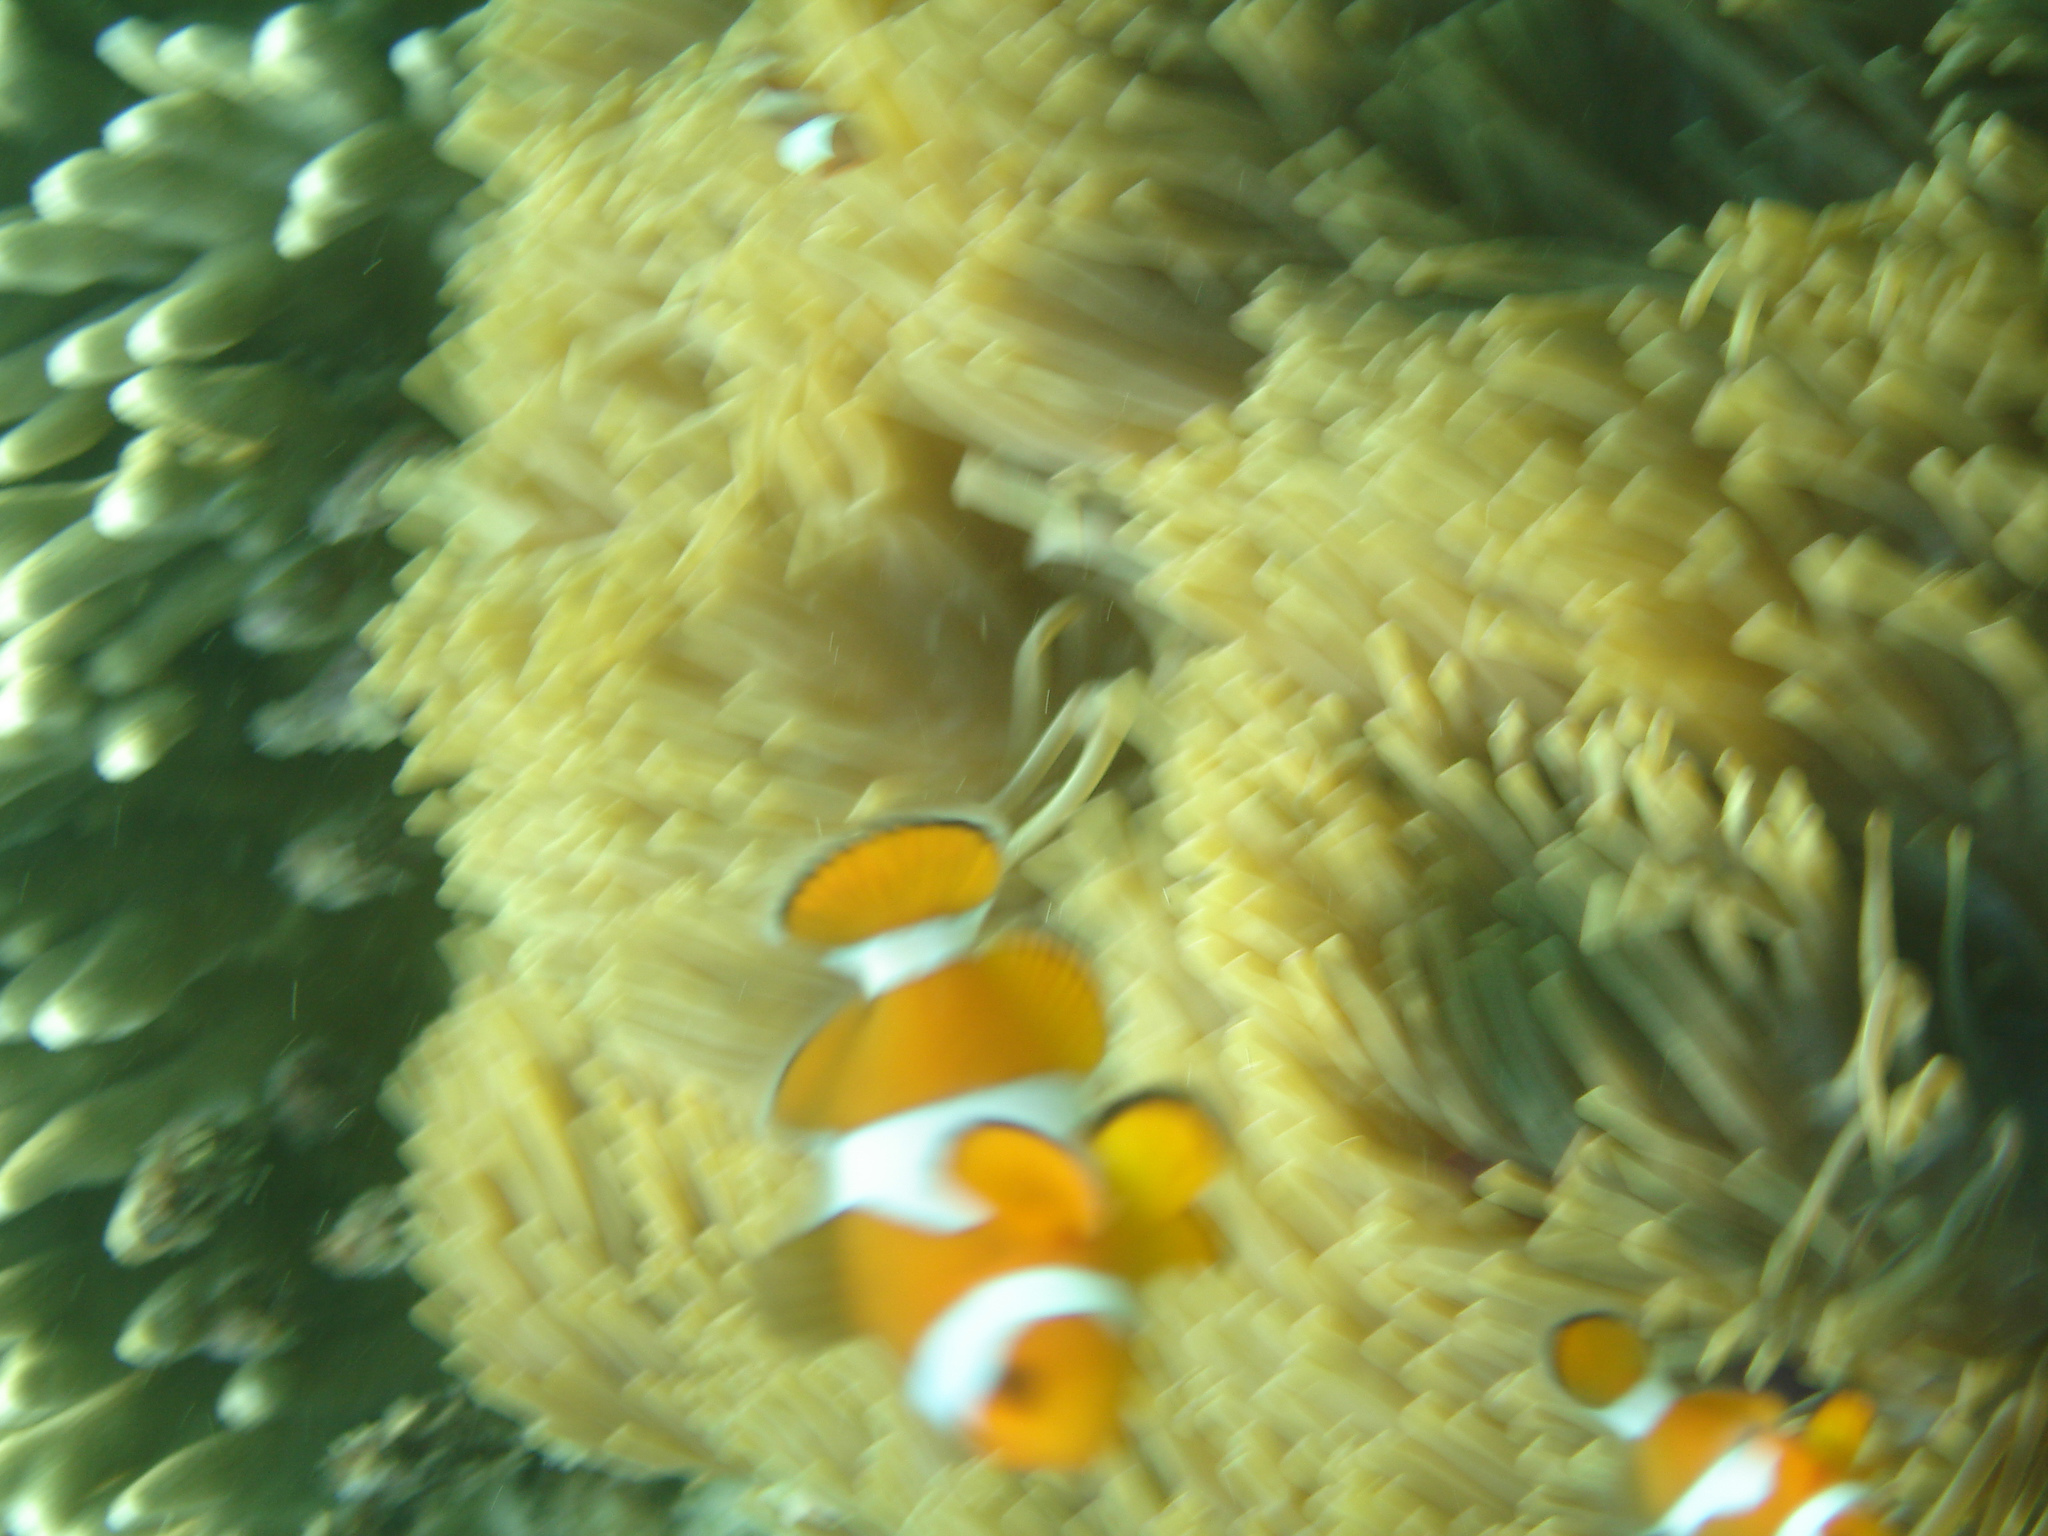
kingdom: Animalia
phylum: Chordata
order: Perciformes
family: Pomacentridae
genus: Amphiprion
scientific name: Amphiprion ocellaris
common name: Clown anemonefish
